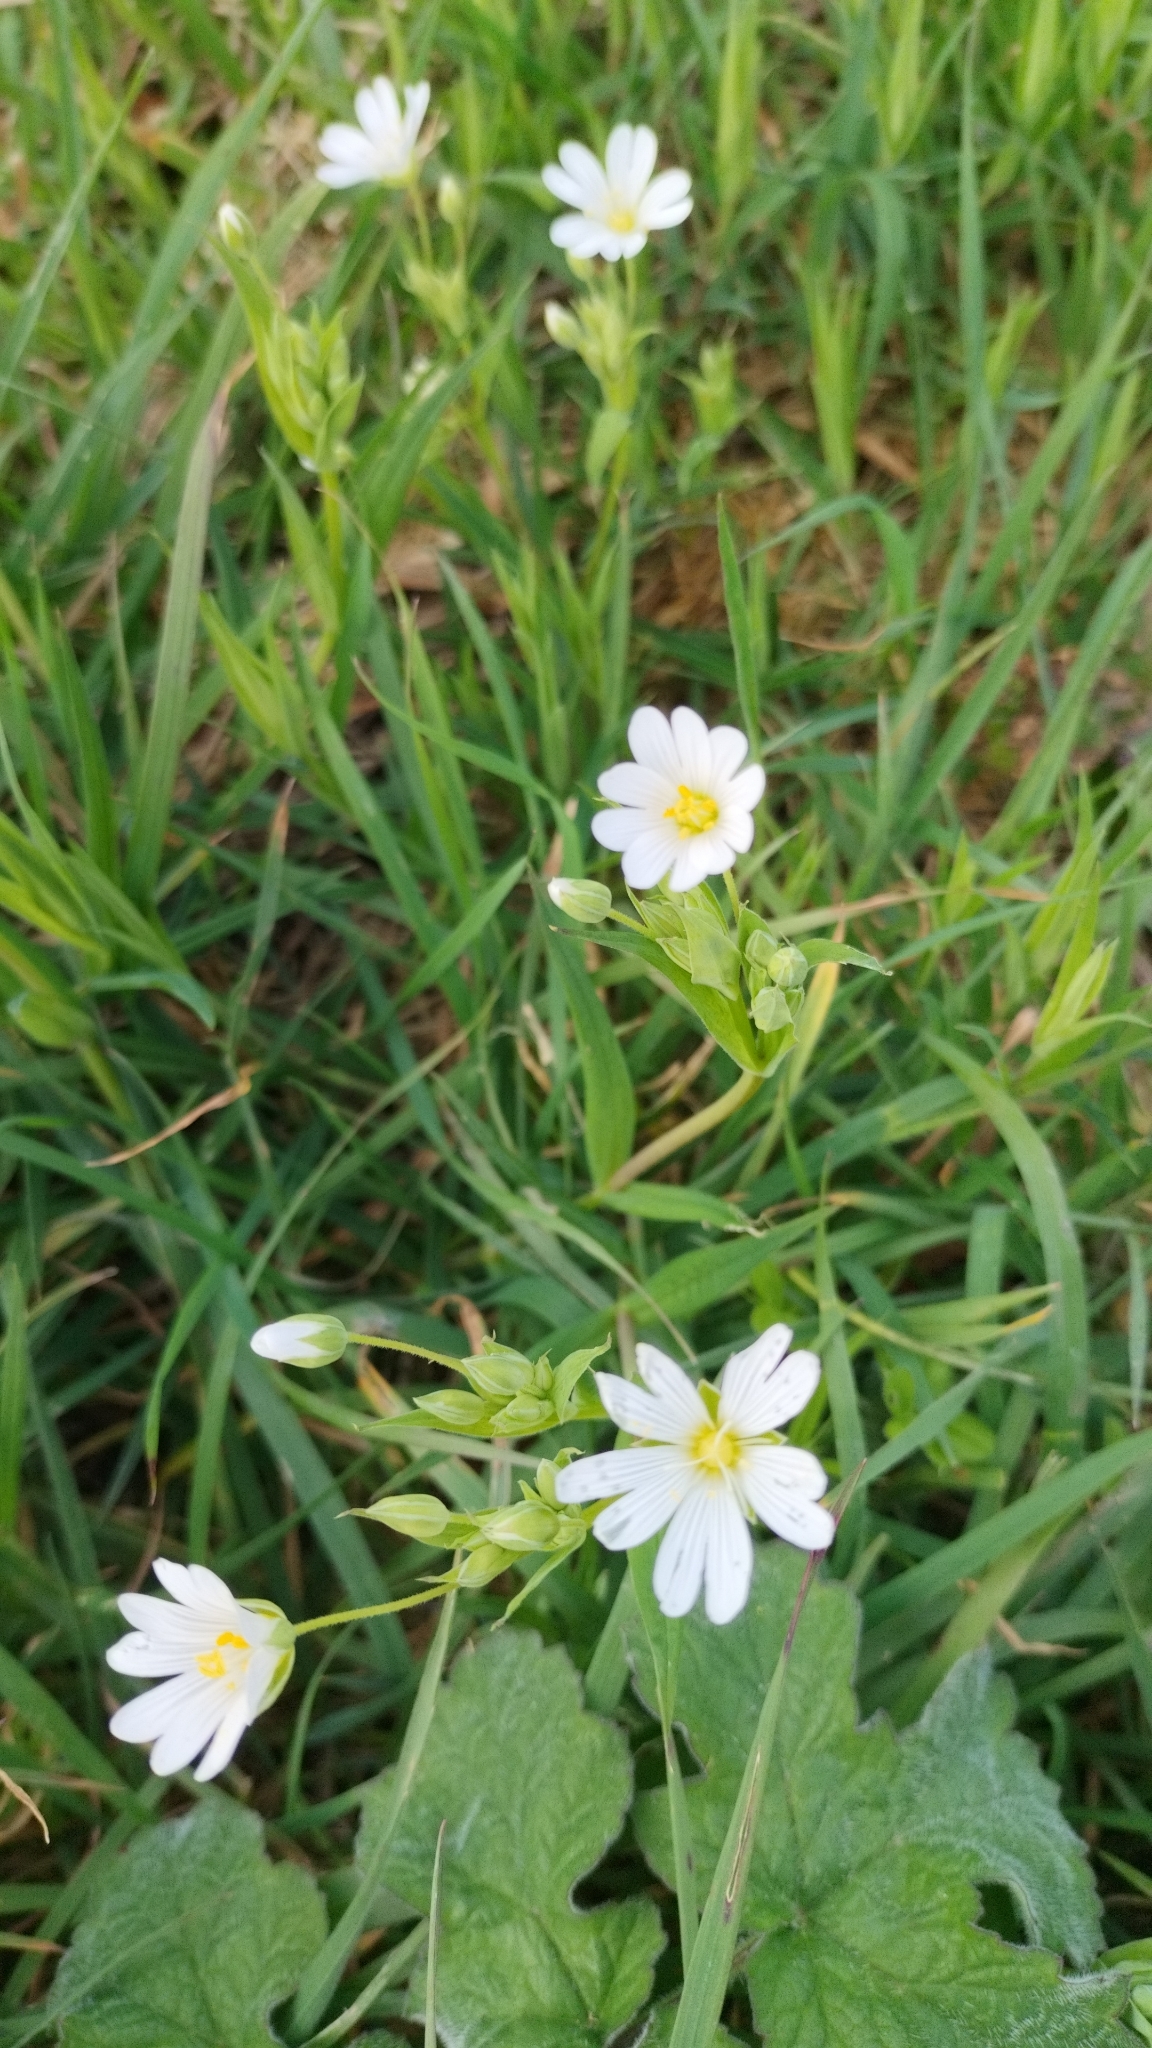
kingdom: Plantae
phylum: Tracheophyta
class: Magnoliopsida
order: Caryophyllales
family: Caryophyllaceae
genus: Rabelera
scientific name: Rabelera holostea
